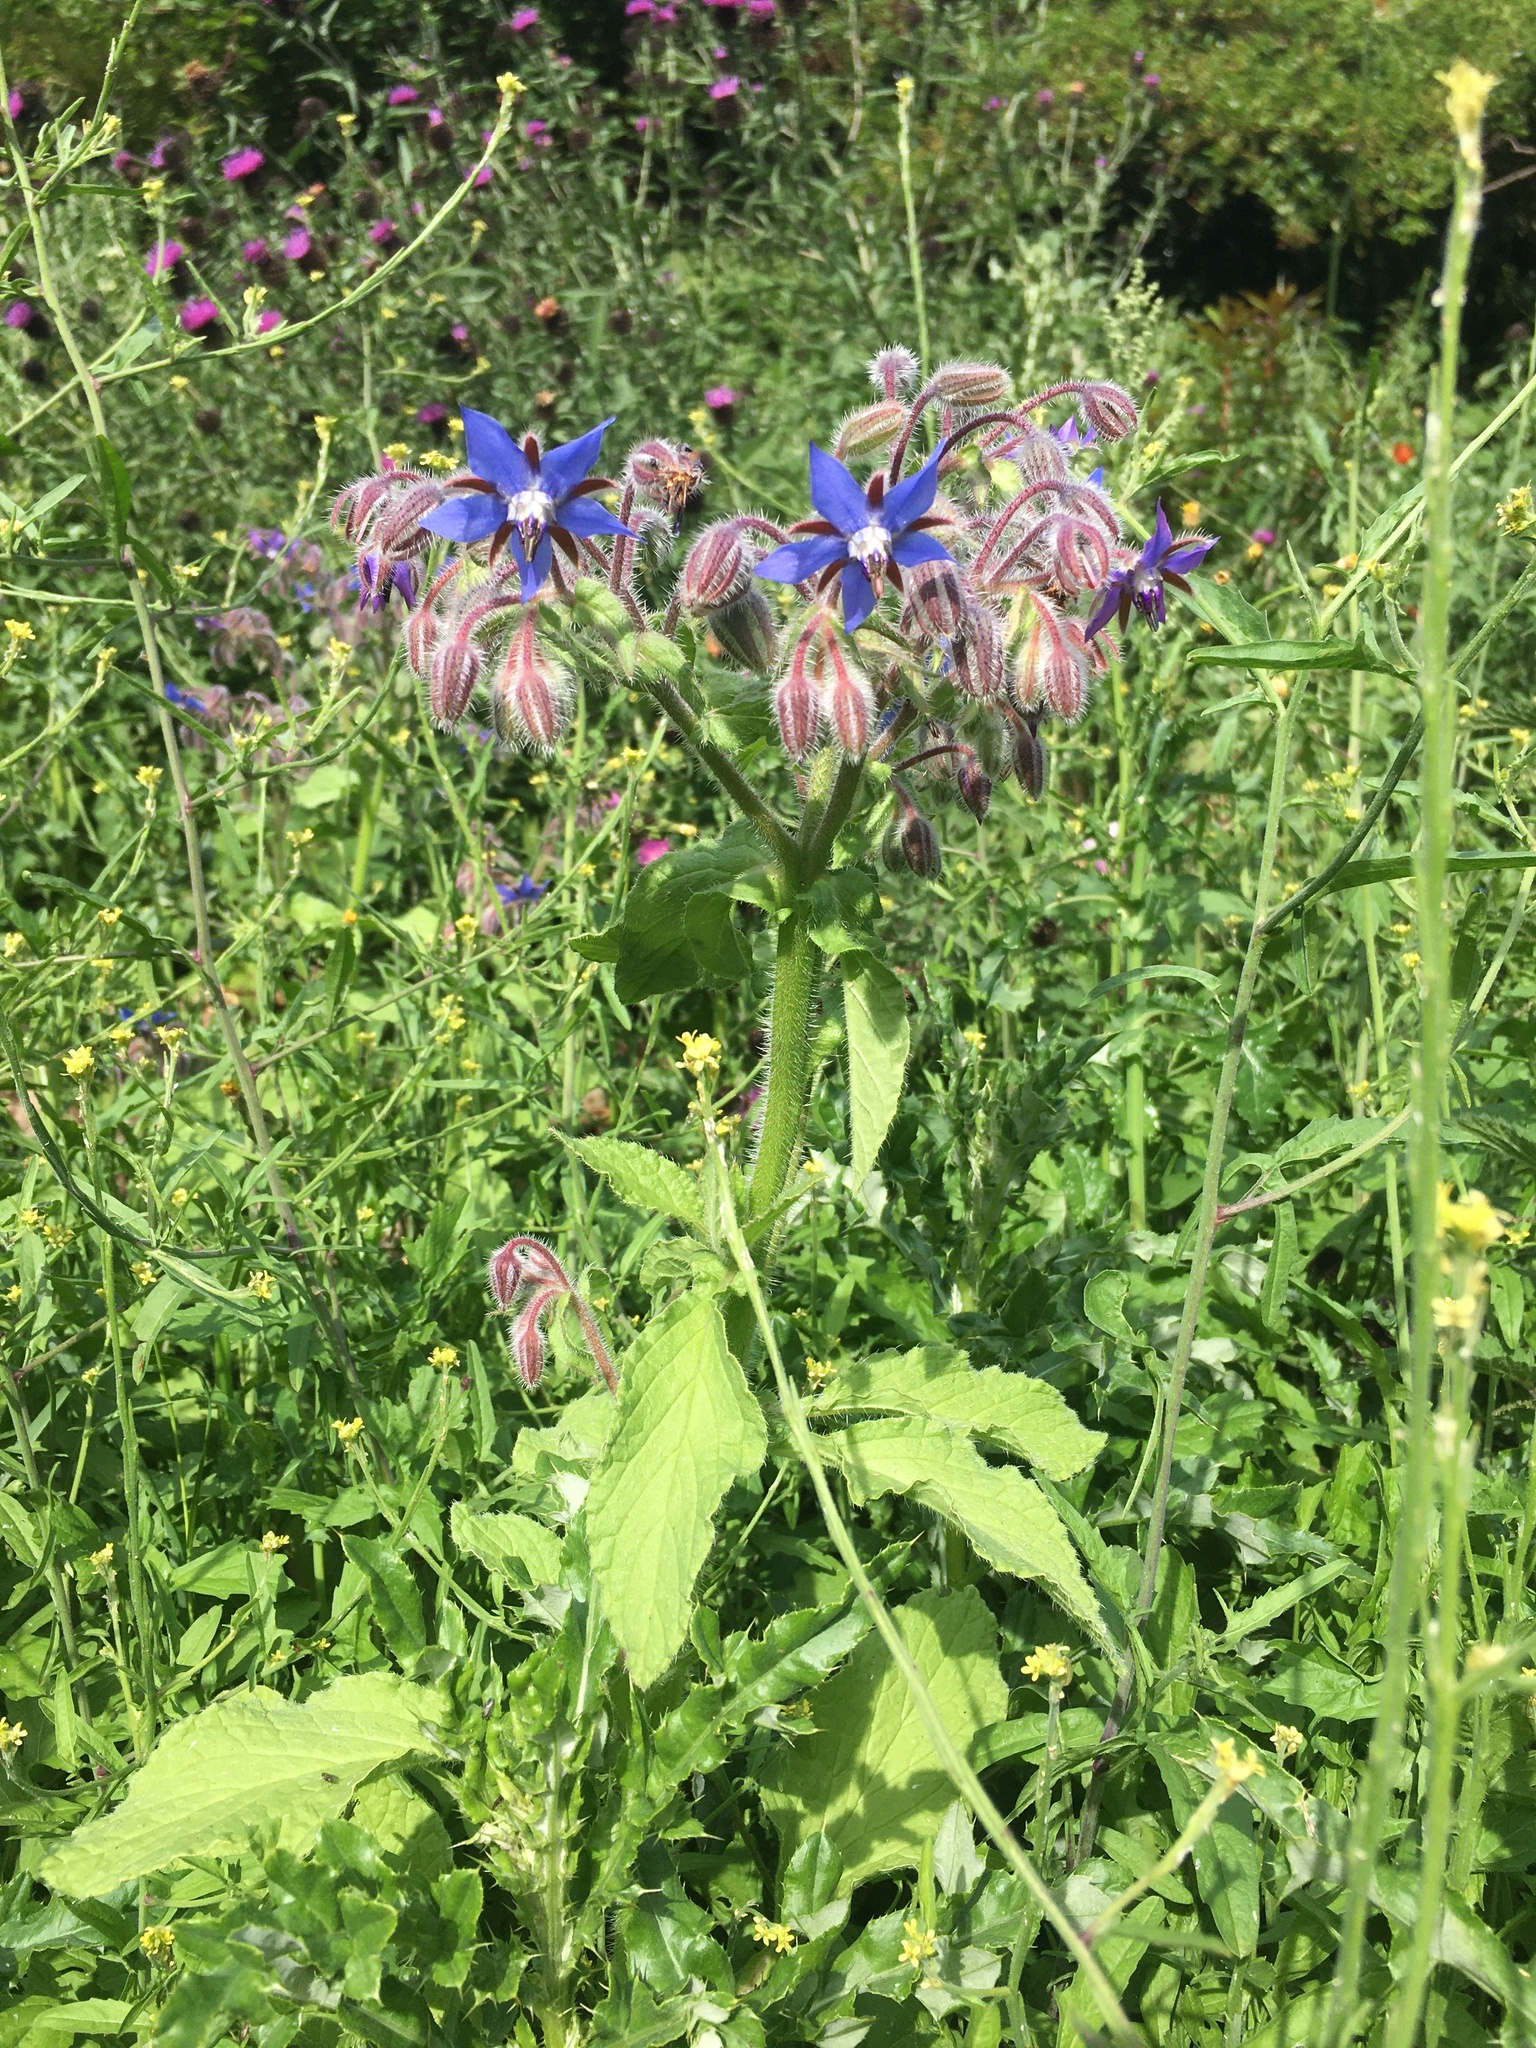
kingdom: Plantae
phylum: Tracheophyta
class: Magnoliopsida
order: Boraginales
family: Boraginaceae
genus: Borago
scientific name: Borago officinalis
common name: Borage
